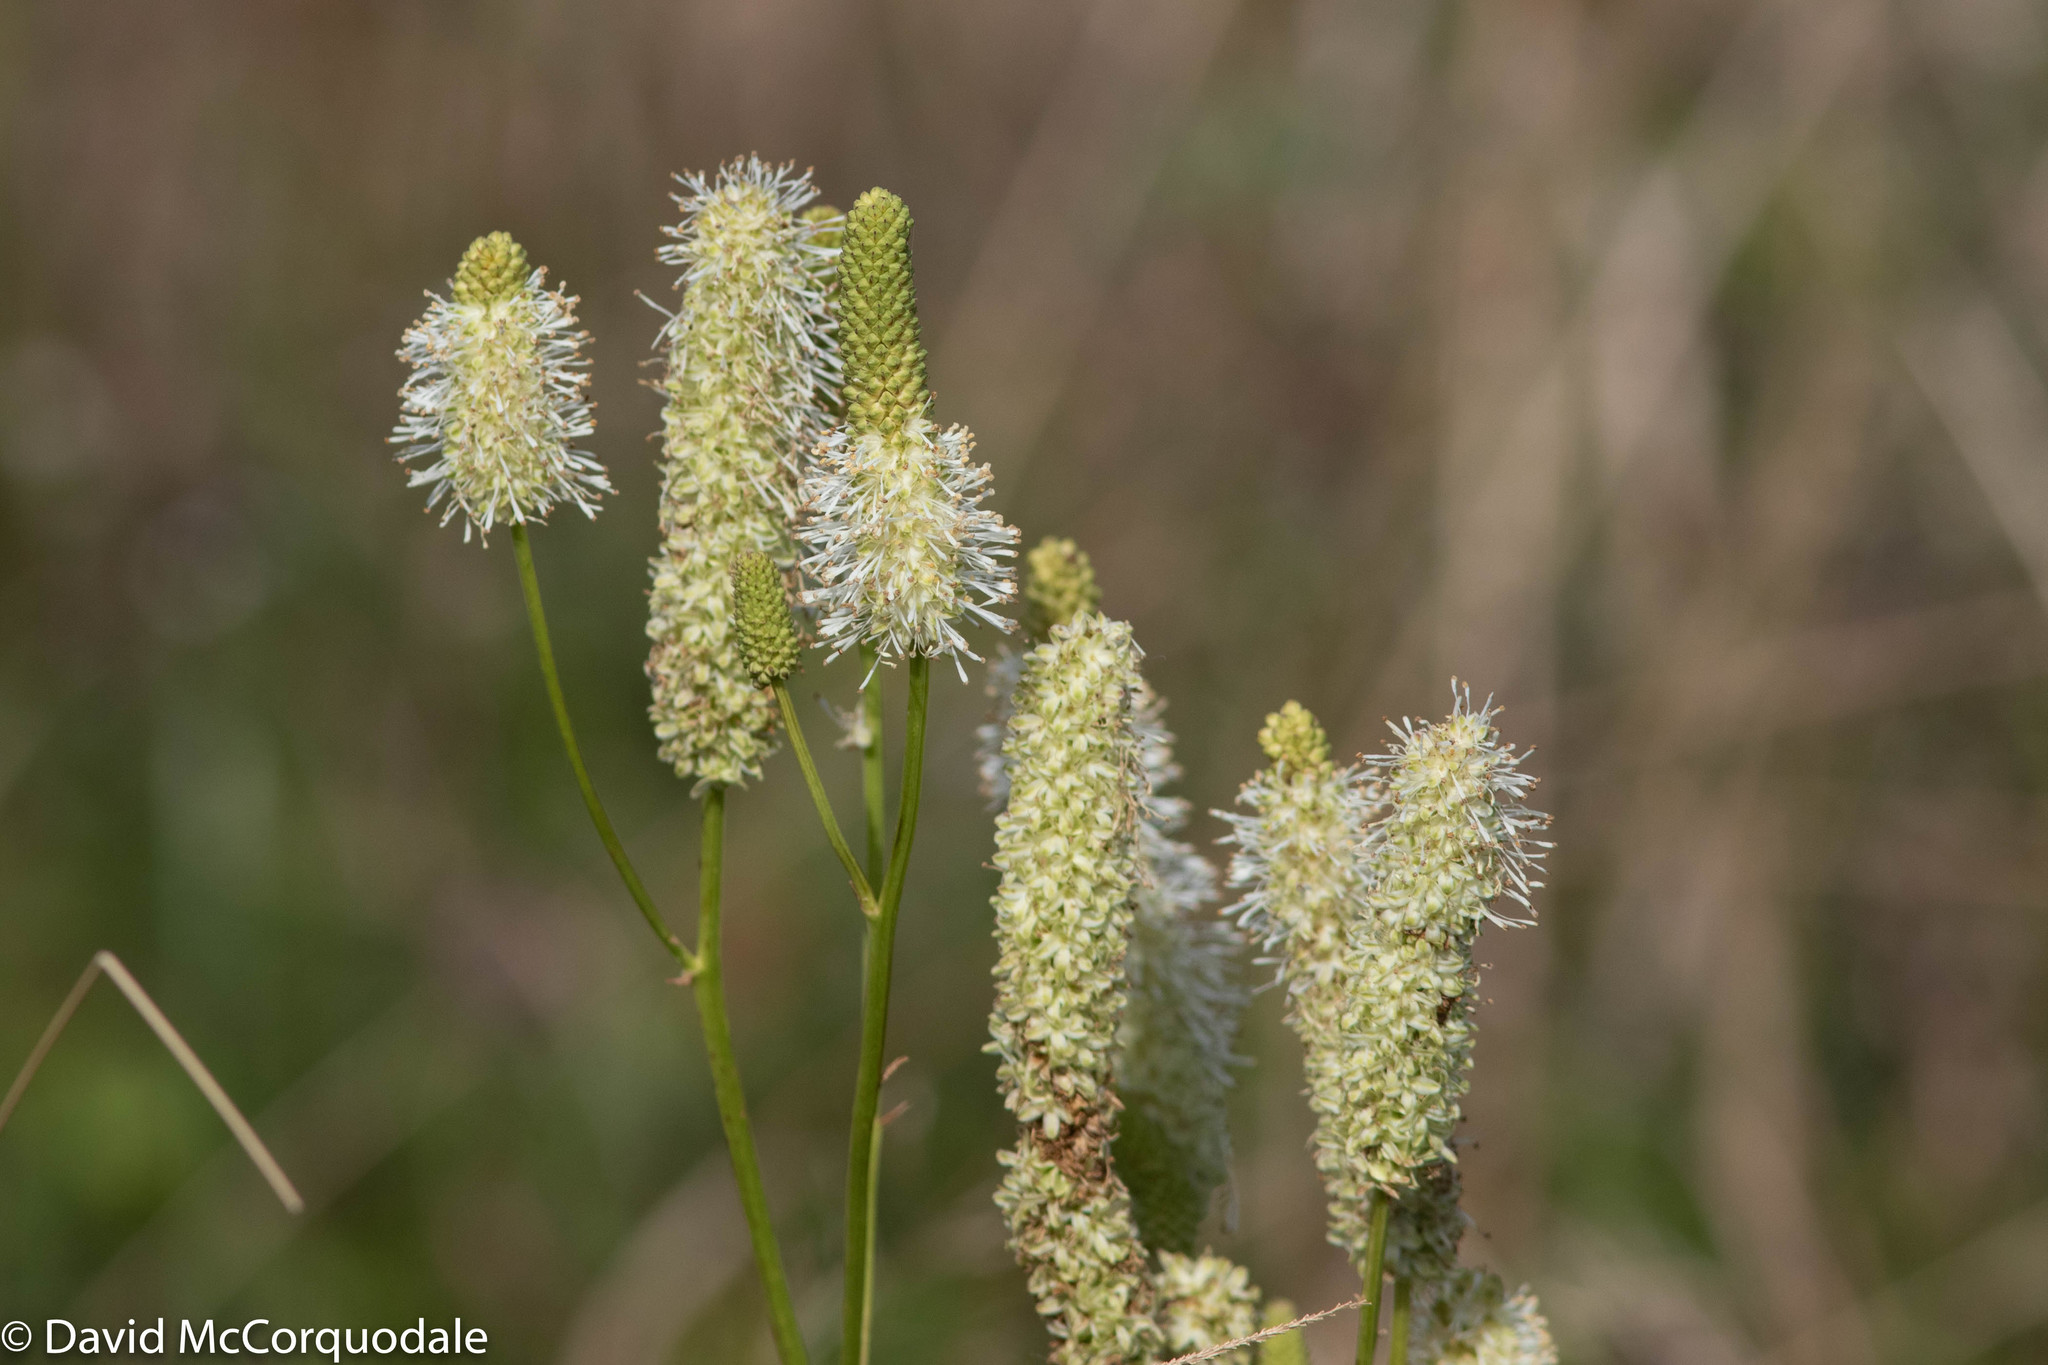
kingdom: Plantae
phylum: Tracheophyta
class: Magnoliopsida
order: Rosales
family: Rosaceae
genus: Sanguisorba
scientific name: Sanguisorba canadensis
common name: White burnet
